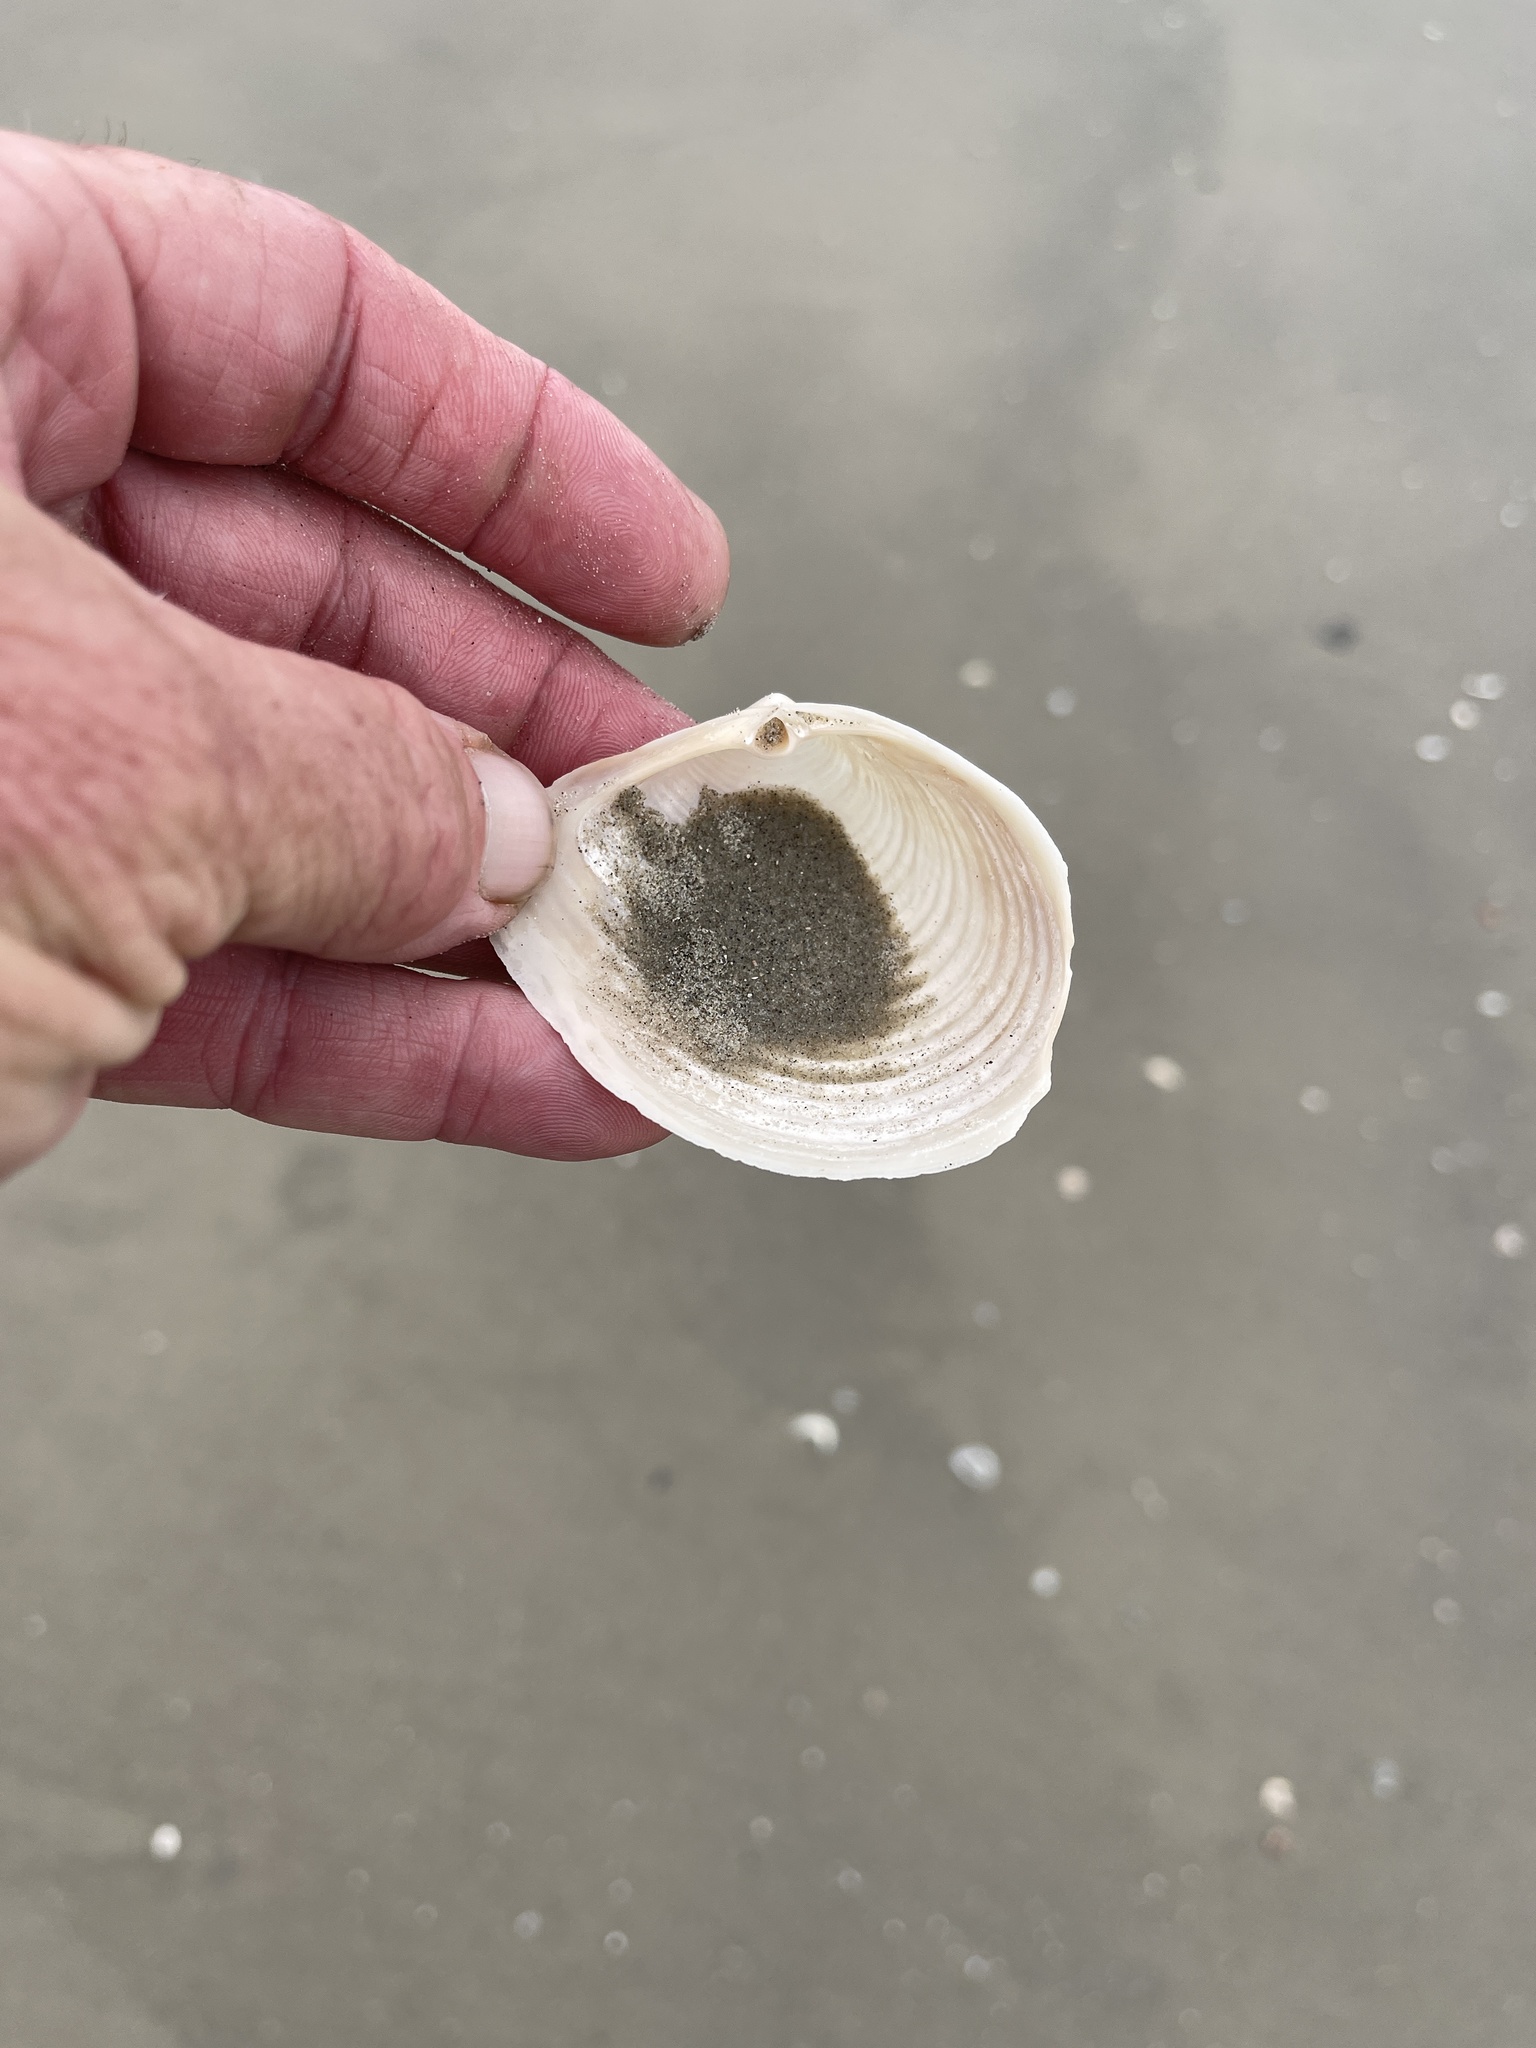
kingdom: Animalia
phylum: Mollusca
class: Bivalvia
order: Venerida
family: Anatinellidae
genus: Raeta
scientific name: Raeta plicatella
